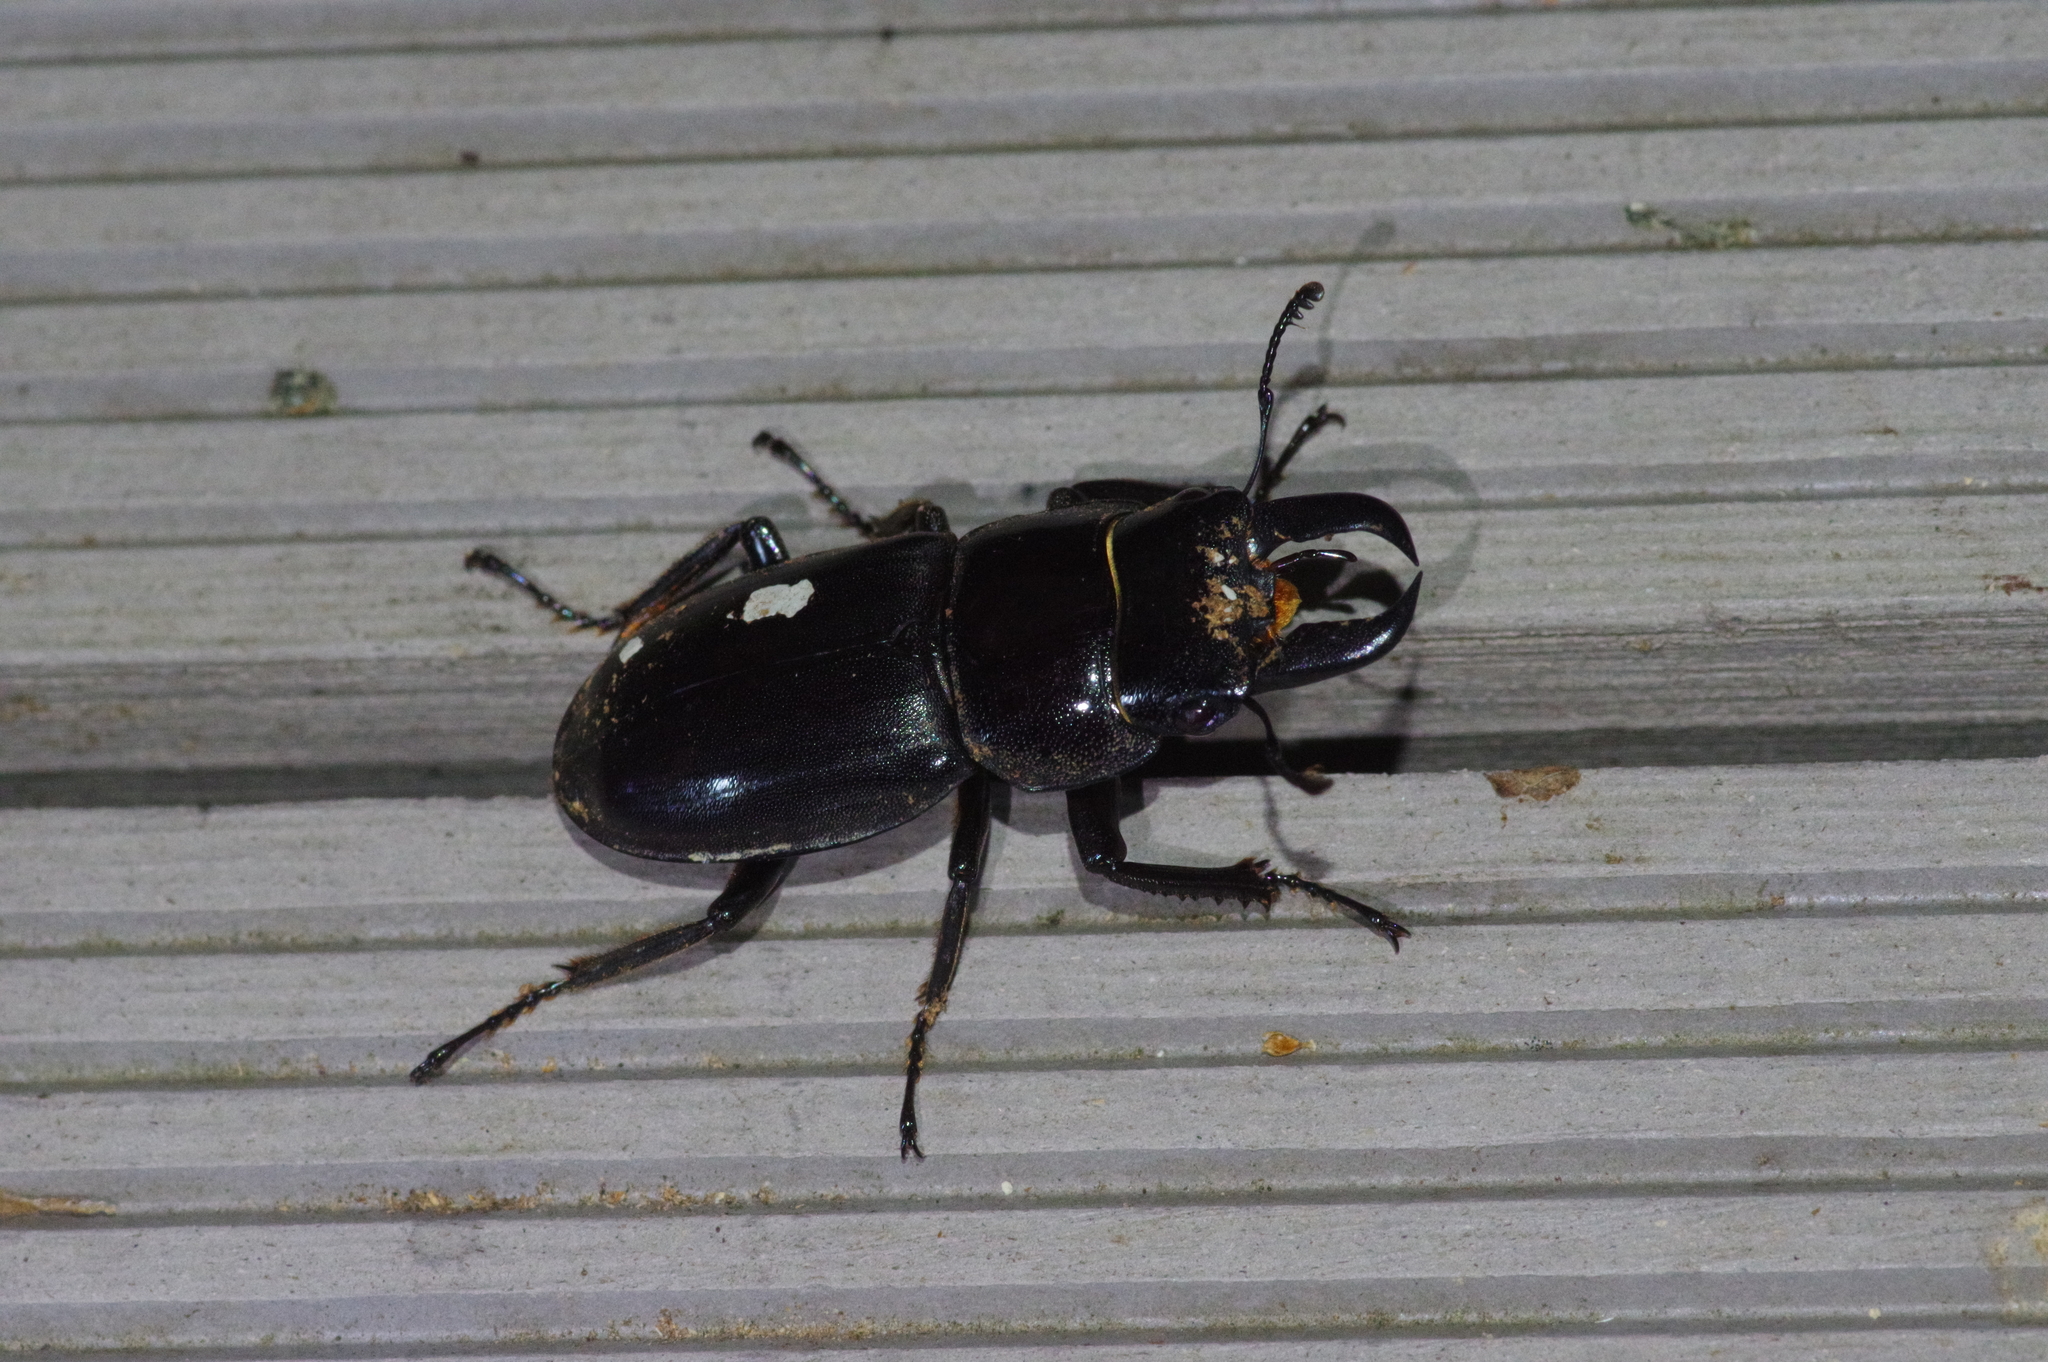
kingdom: Animalia
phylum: Arthropoda
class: Insecta
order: Coleoptera
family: Lucanidae
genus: Serrognathus
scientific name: Serrognathus titanus
